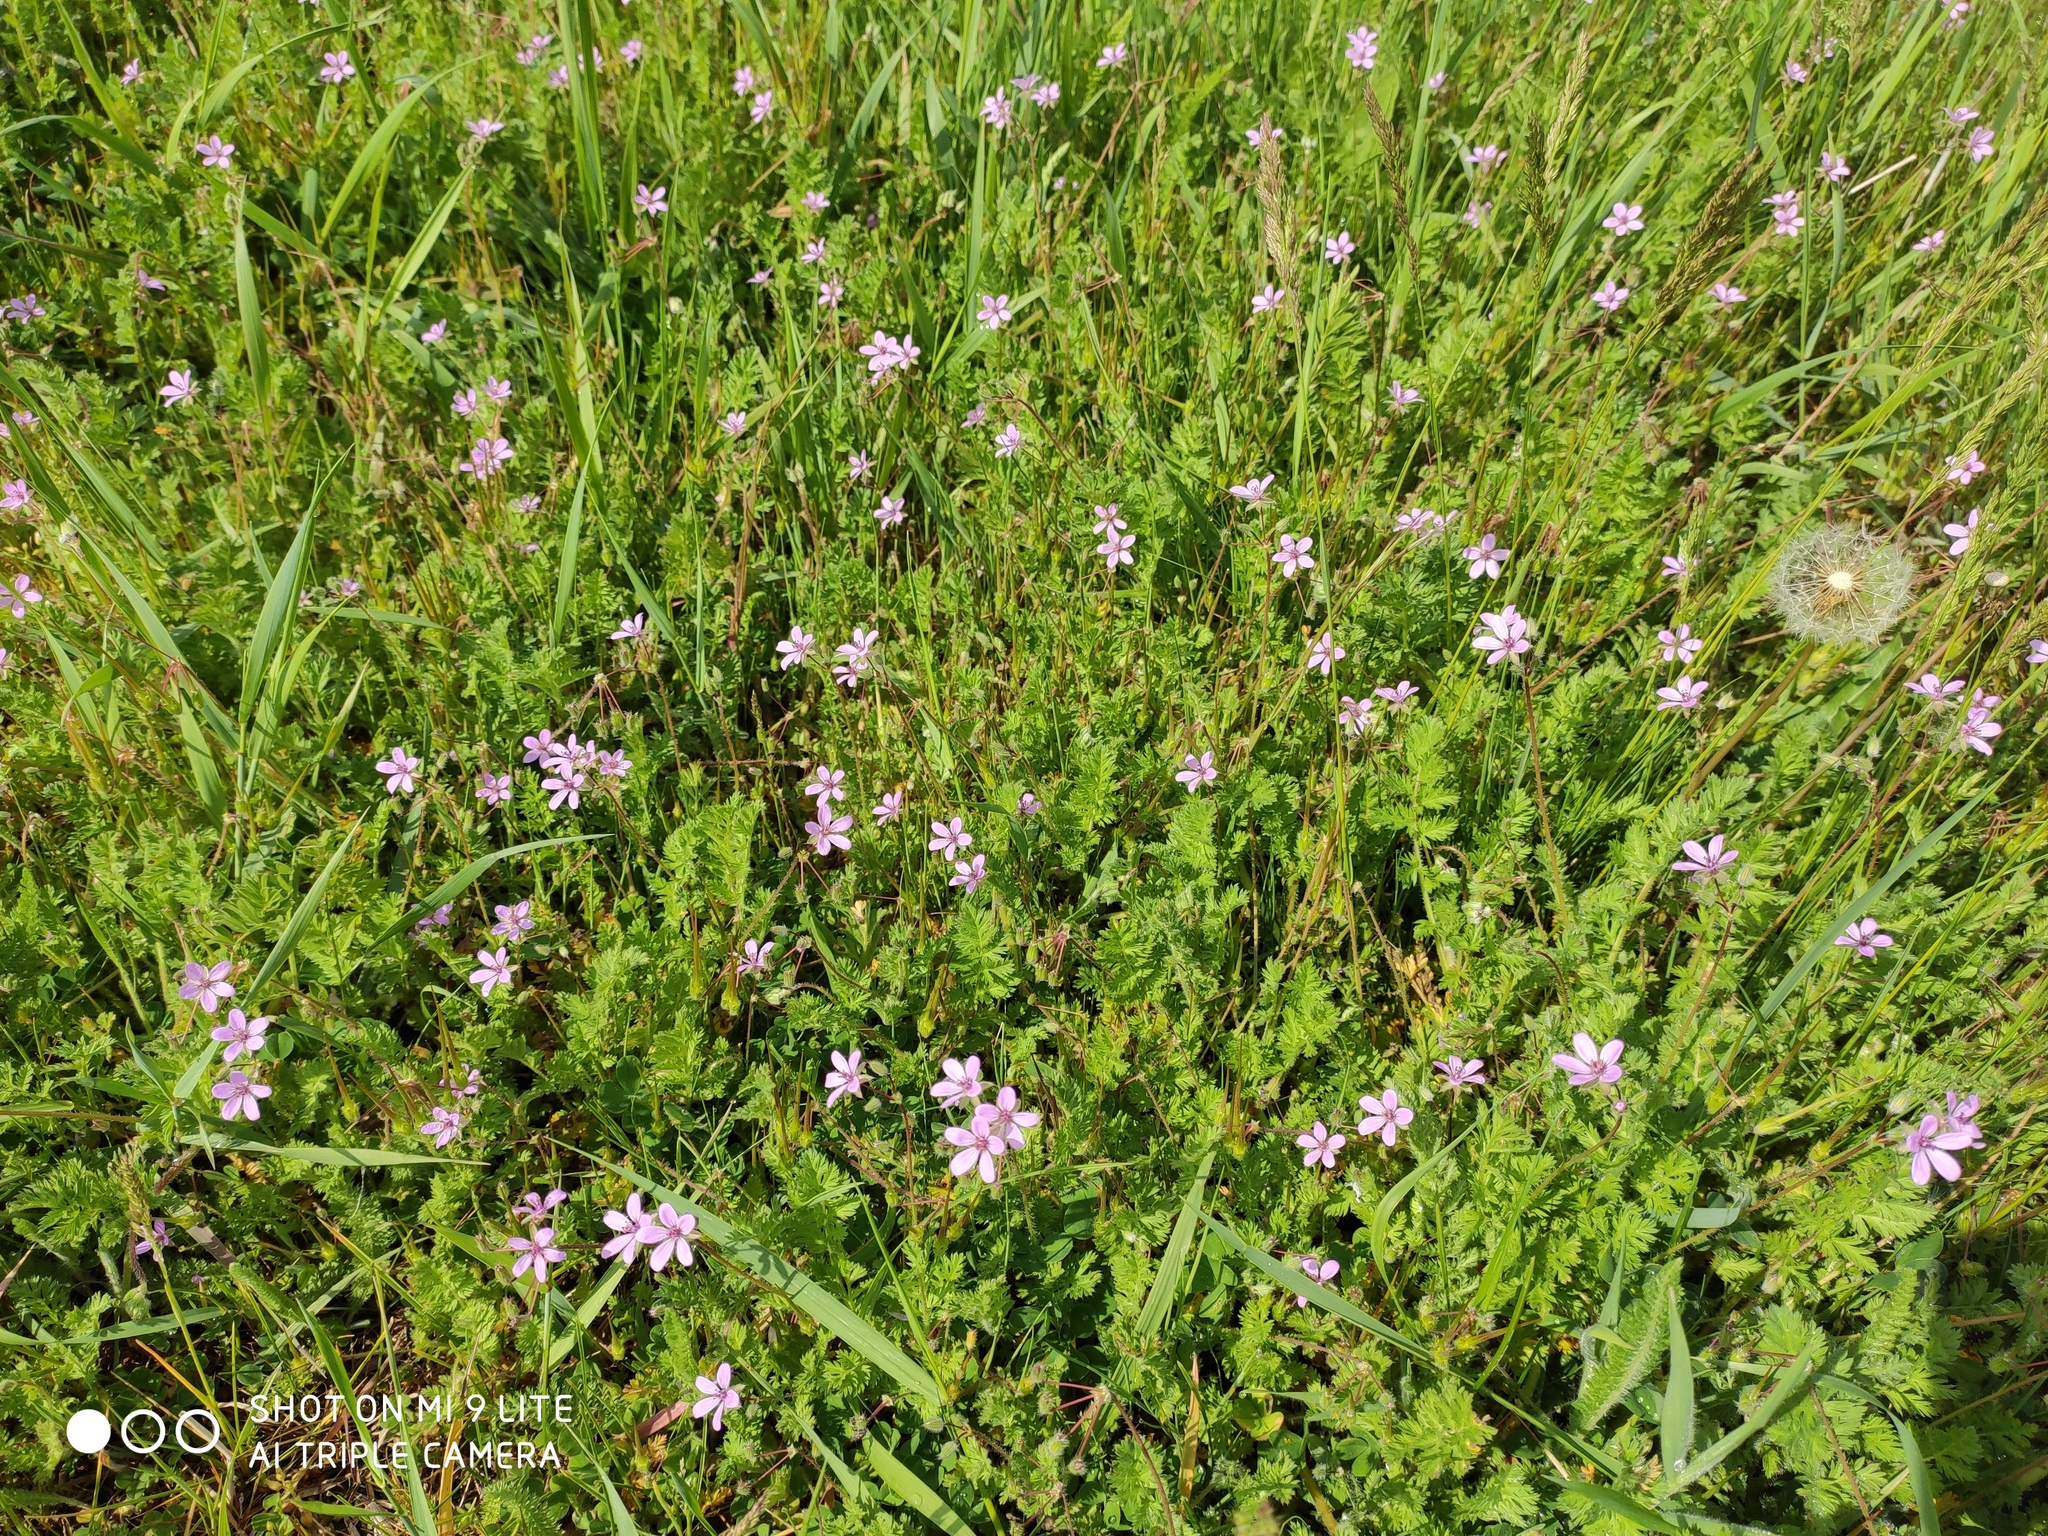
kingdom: Plantae
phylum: Tracheophyta
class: Magnoliopsida
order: Geraniales
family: Geraniaceae
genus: Erodium
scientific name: Erodium cicutarium
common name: Common stork's-bill
